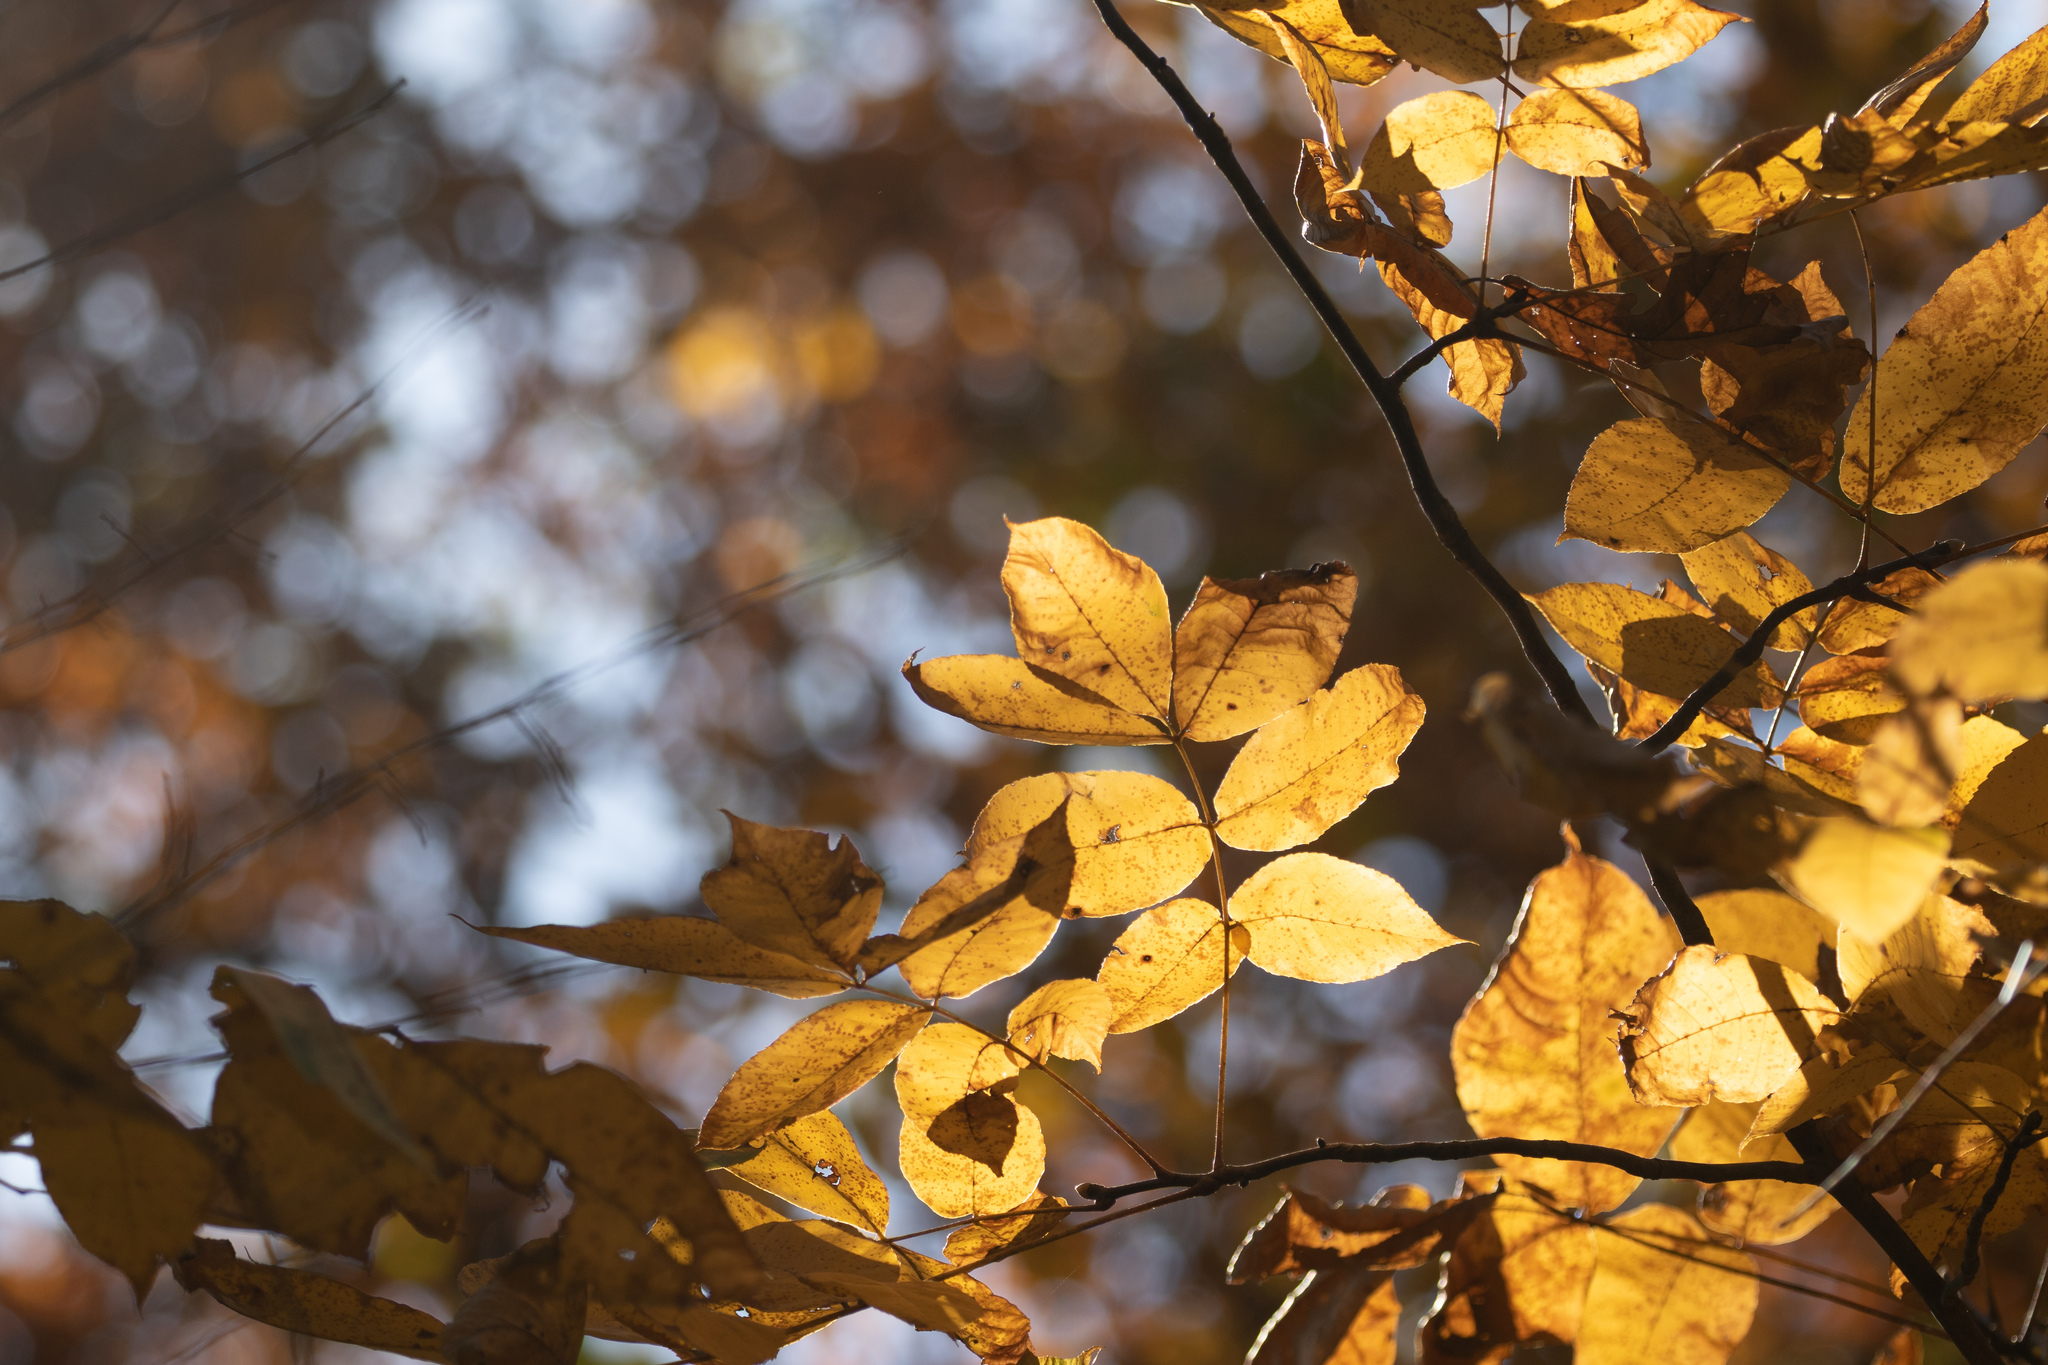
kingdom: Plantae
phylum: Tracheophyta
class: Magnoliopsida
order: Fagales
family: Juglandaceae
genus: Carya
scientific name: Carya alba
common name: Mockernut hickory
